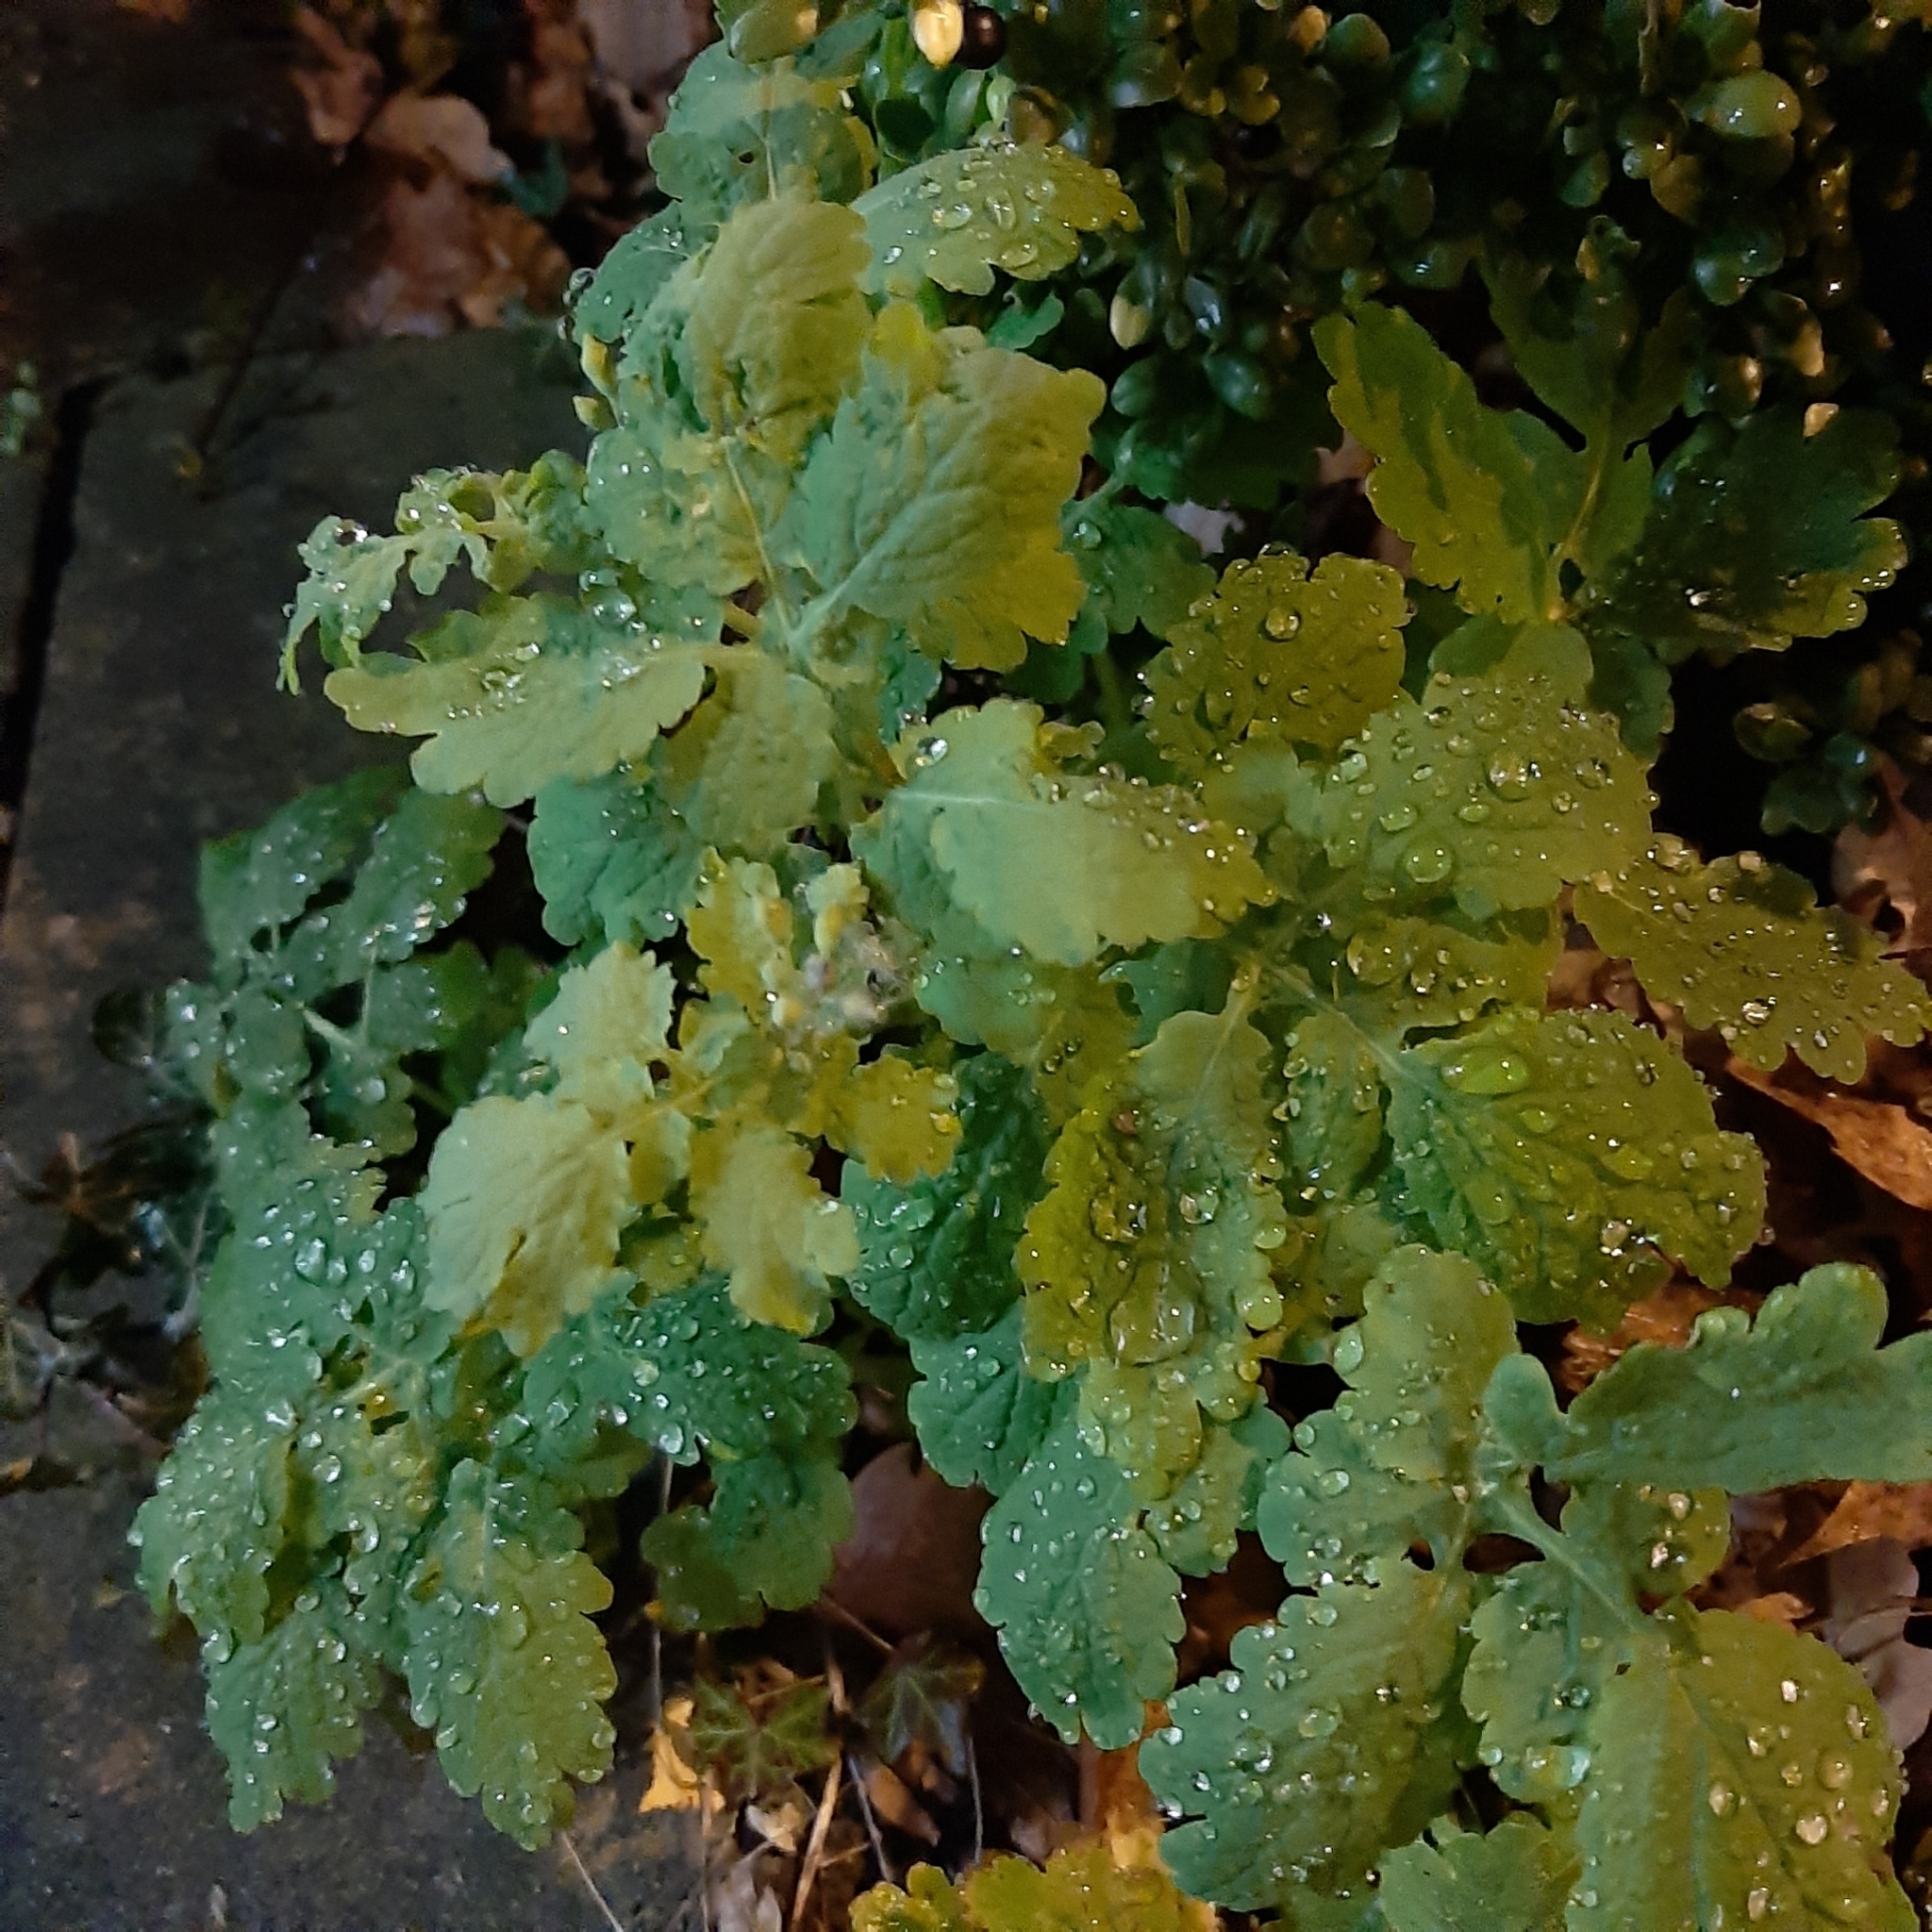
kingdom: Plantae
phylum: Tracheophyta
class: Magnoliopsida
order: Ranunculales
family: Papaveraceae
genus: Chelidonium
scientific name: Chelidonium majus
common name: Greater celandine
